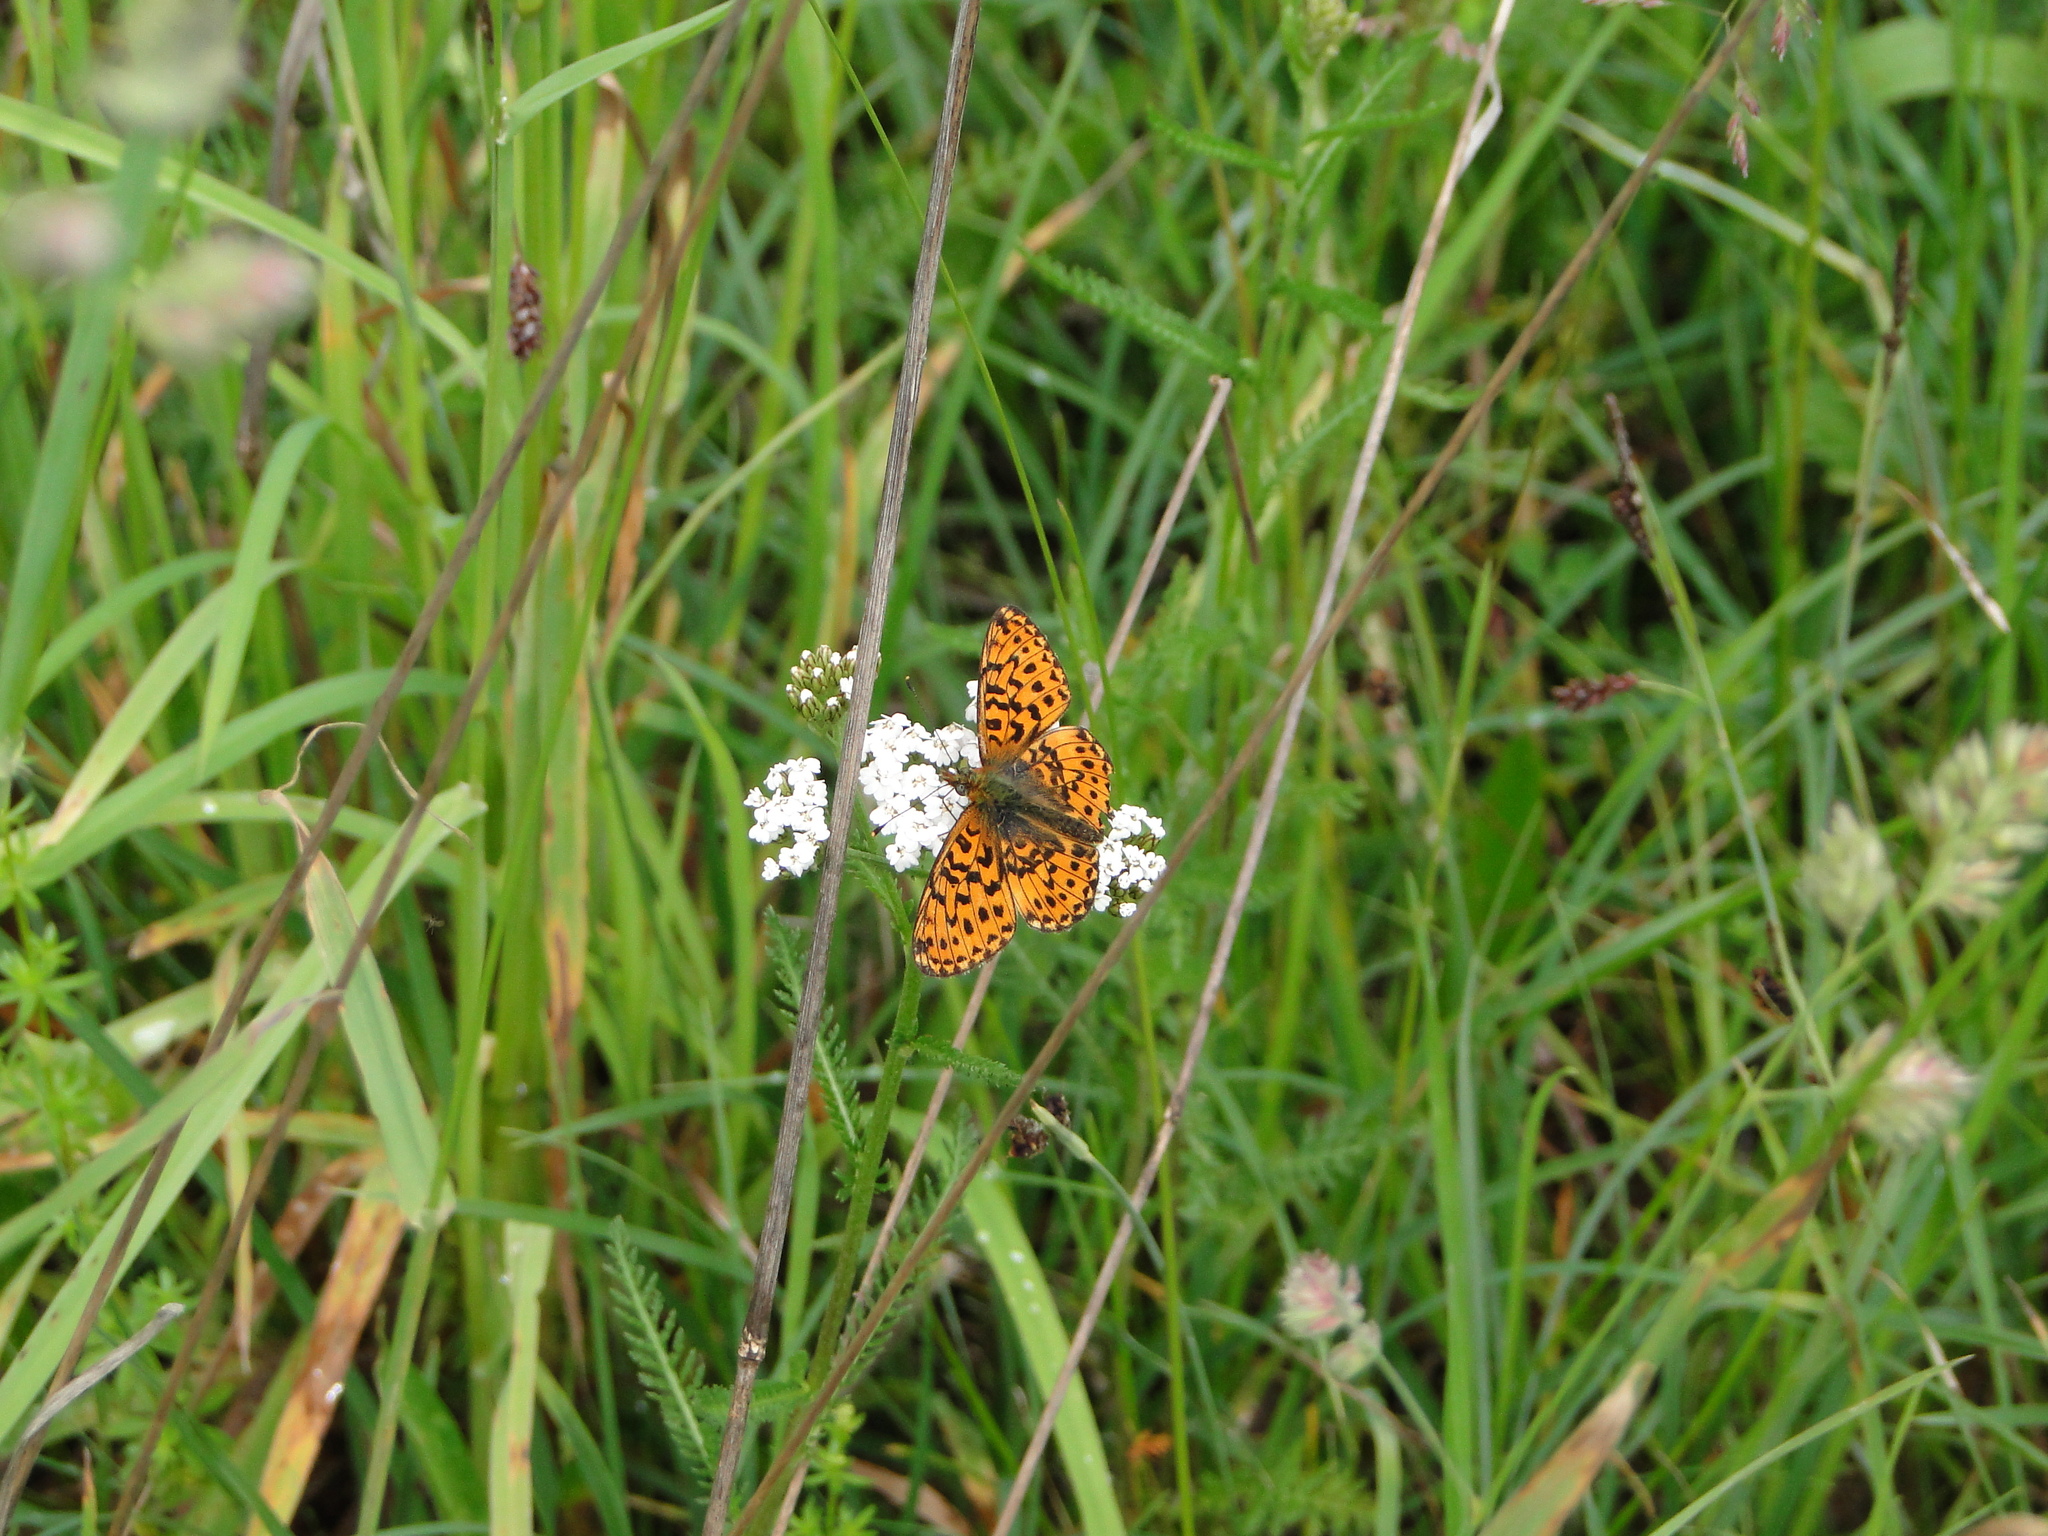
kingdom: Animalia
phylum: Arthropoda
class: Insecta
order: Lepidoptera
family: Nymphalidae
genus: Clossiana
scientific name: Clossiana euphrosyne
